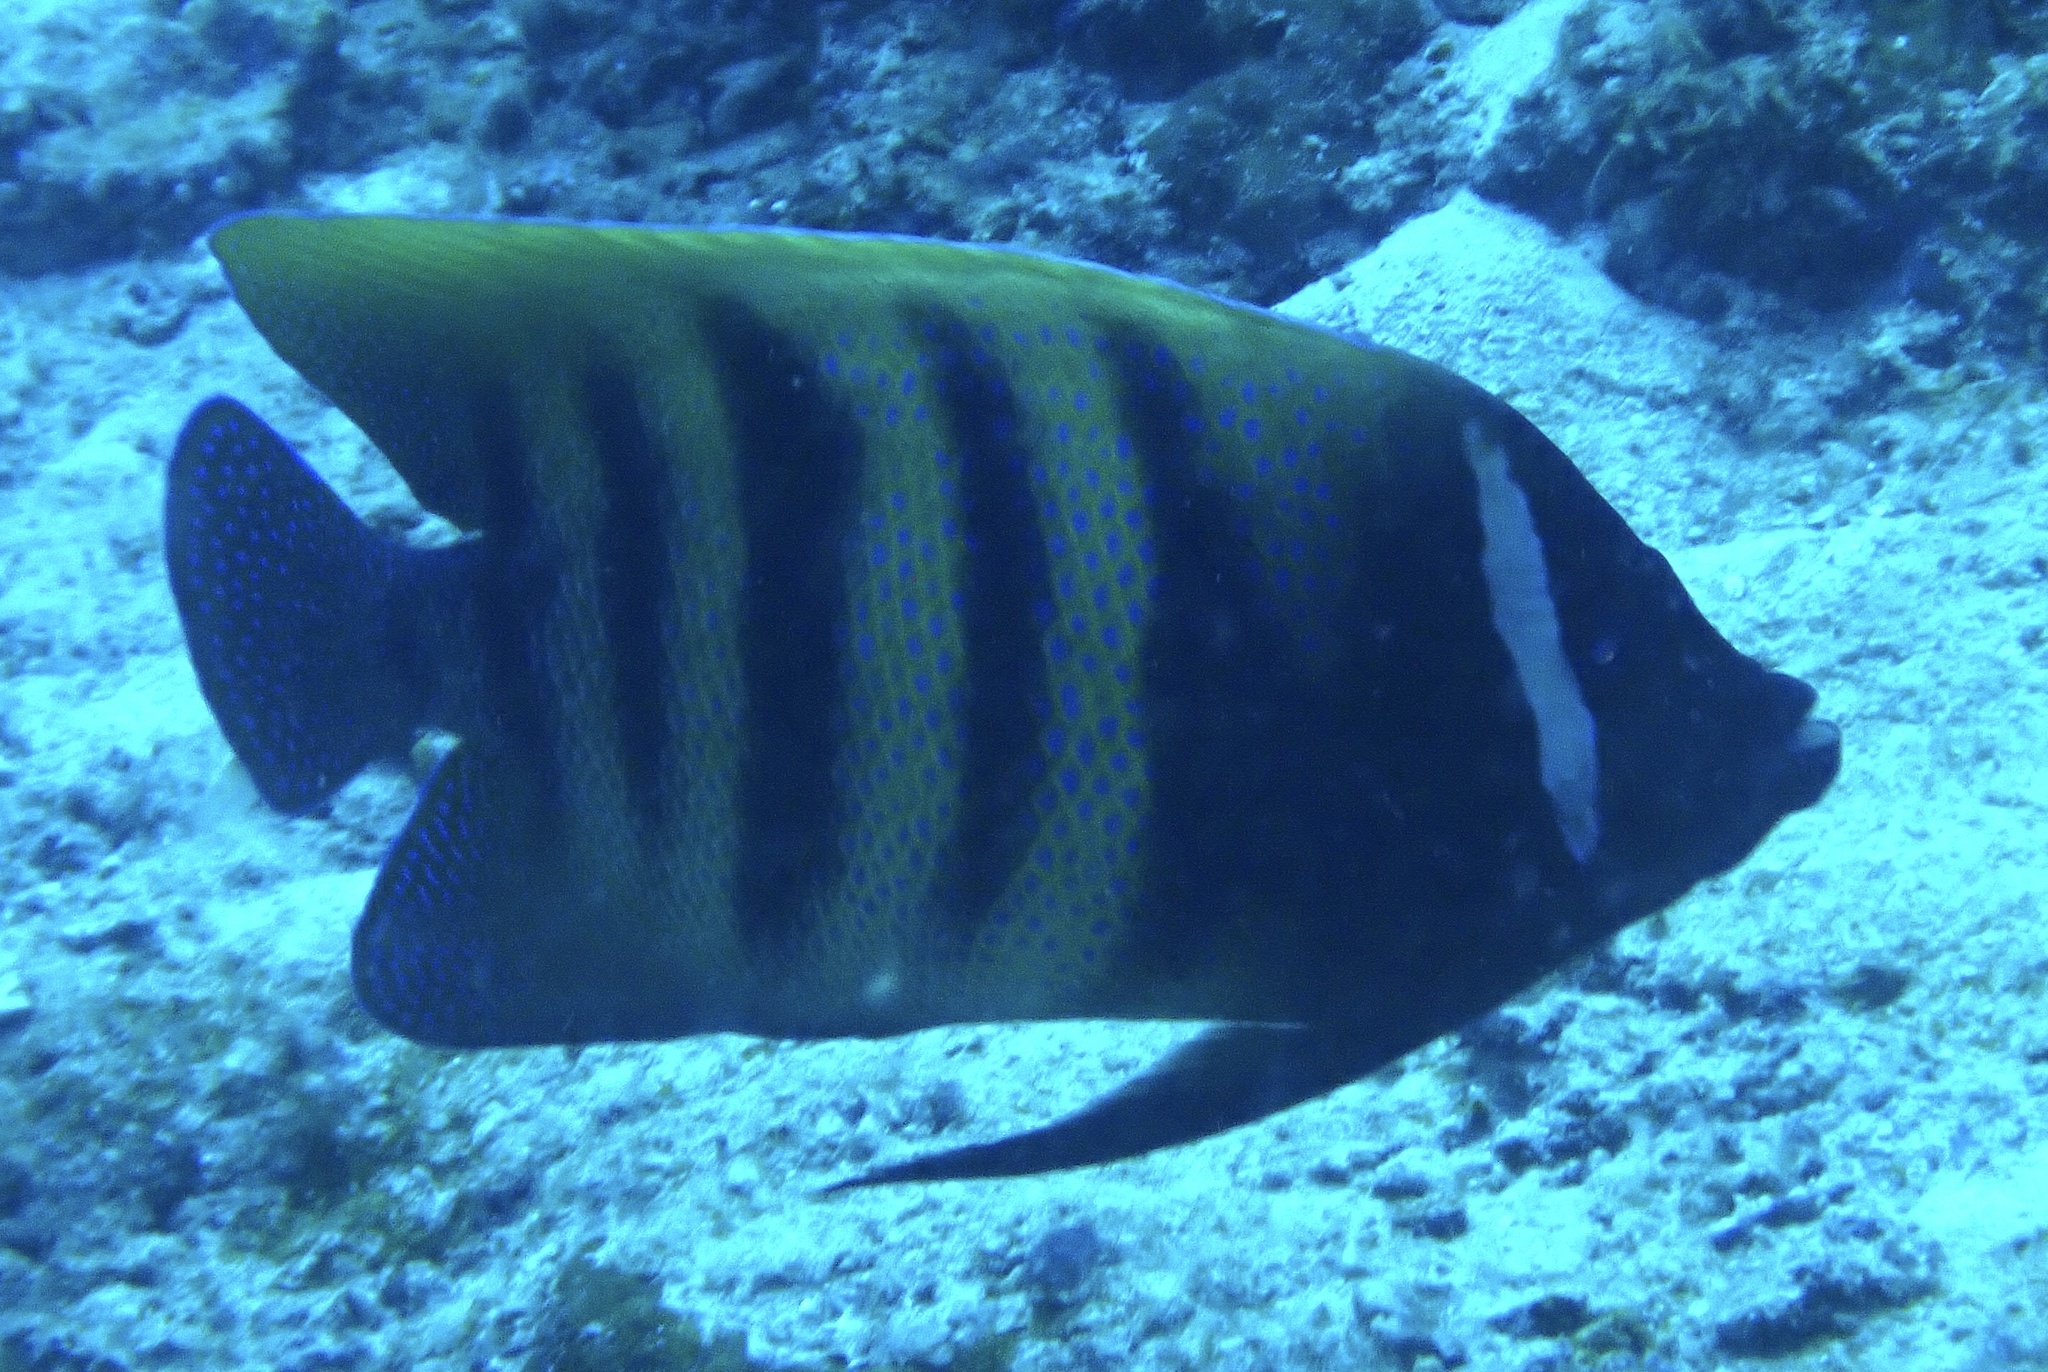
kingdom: Animalia
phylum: Chordata
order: Perciformes
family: Pomacanthidae
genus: Pomacanthus
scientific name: Pomacanthus sexstriatus
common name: Six-banded angelfish
